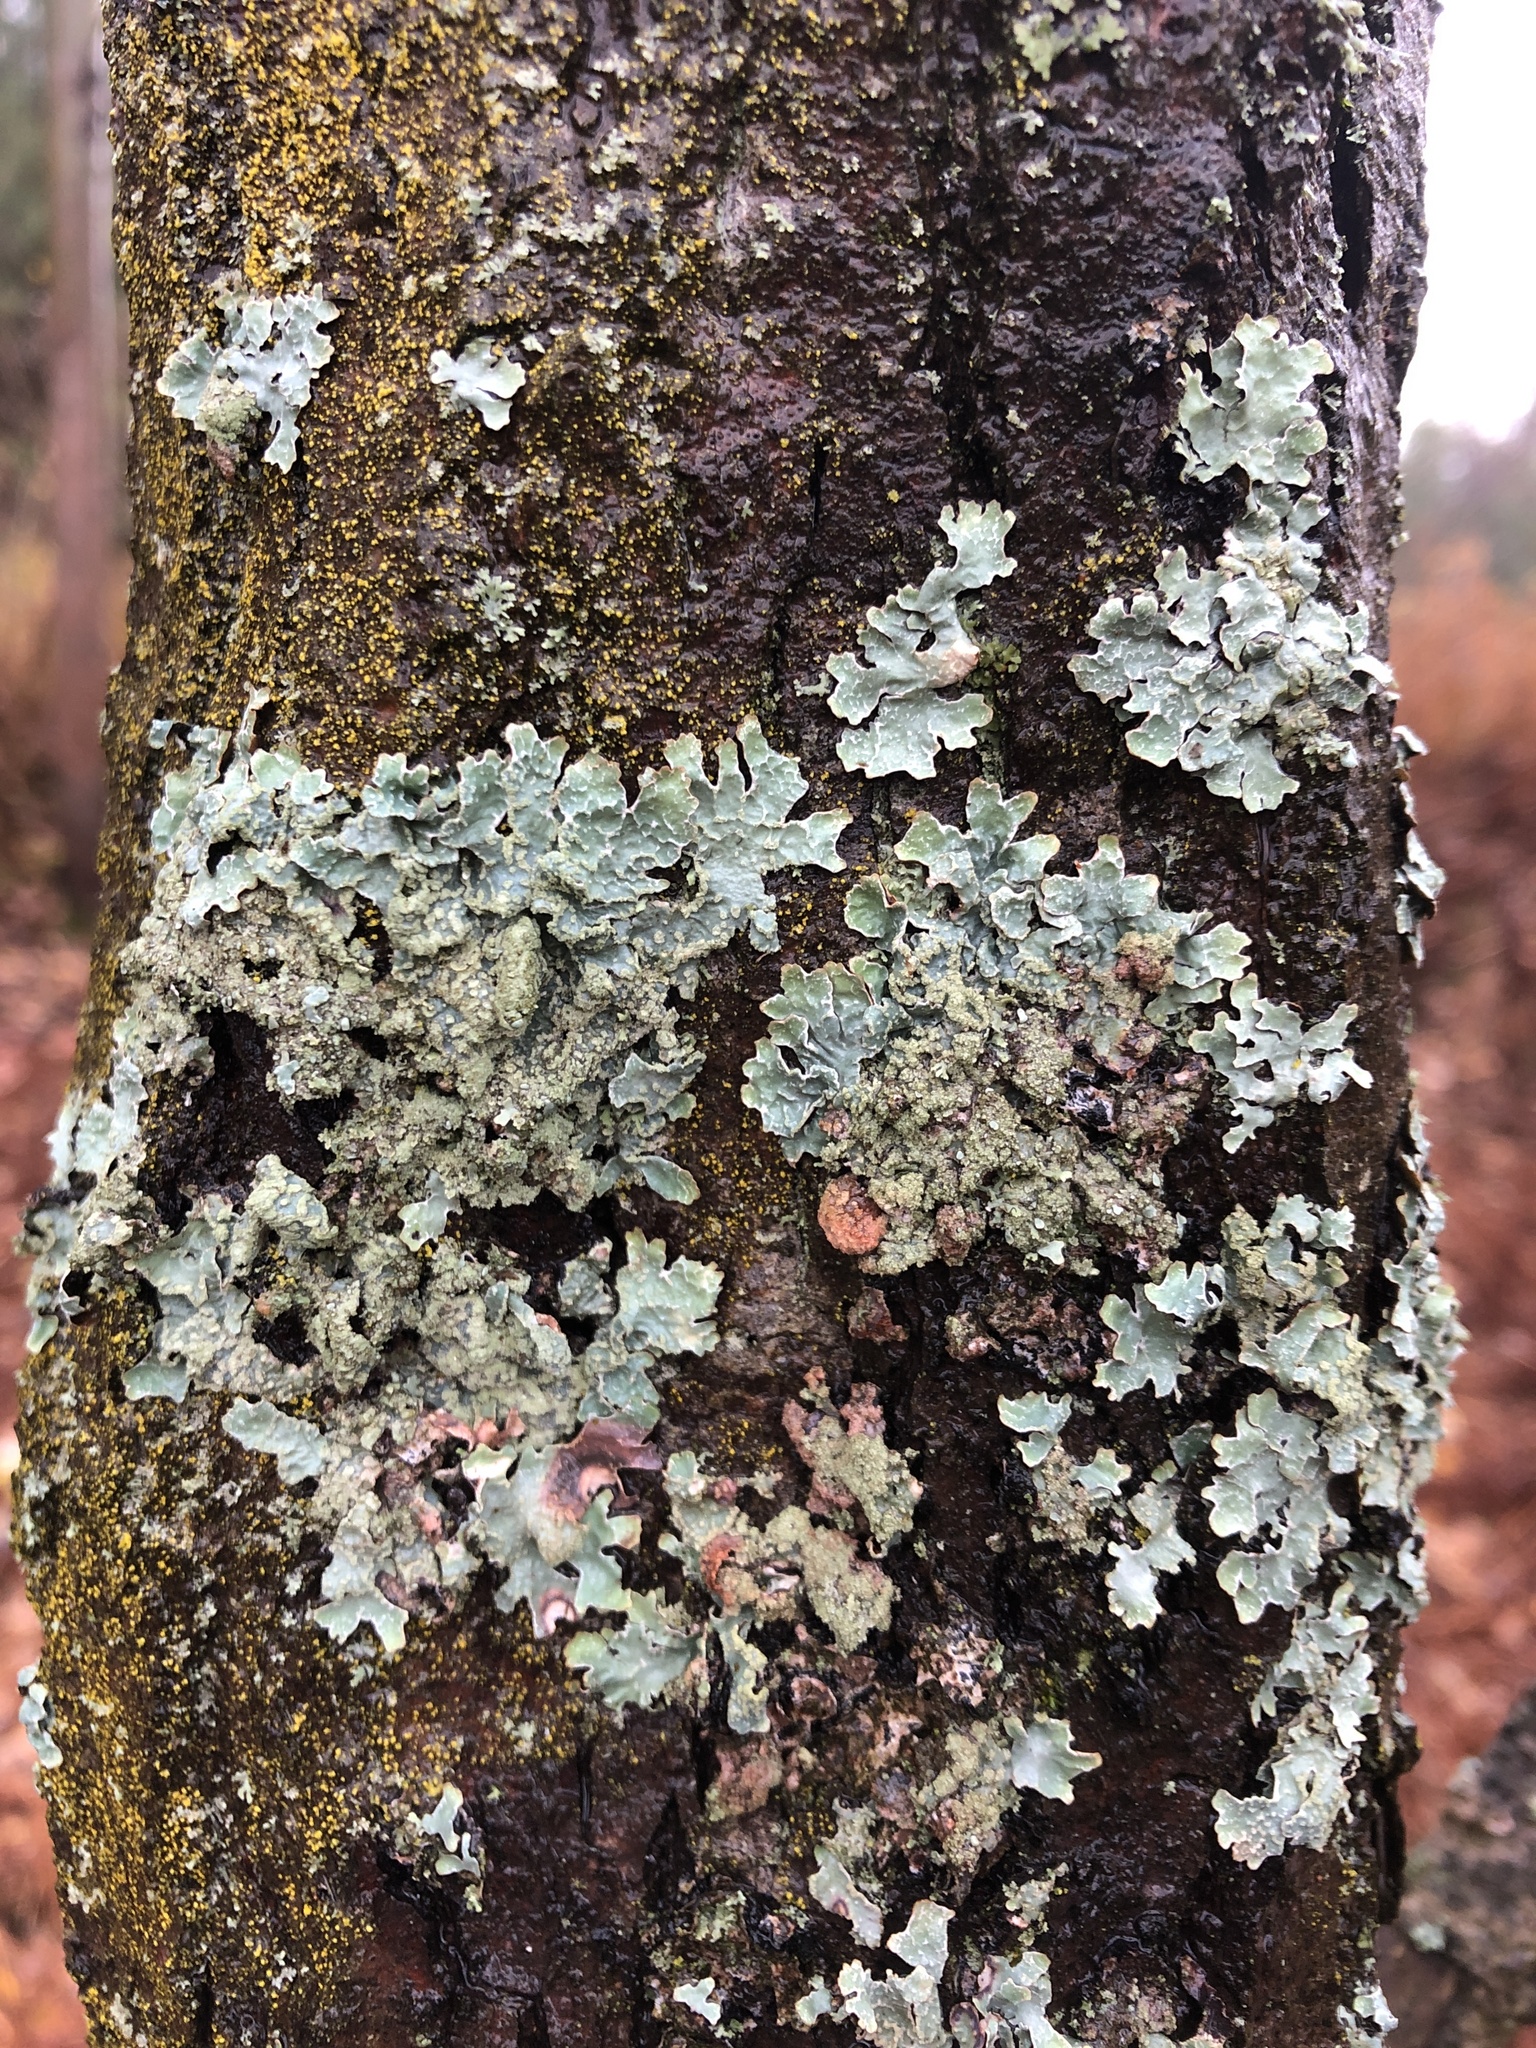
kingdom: Fungi
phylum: Ascomycota
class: Lecanoromycetes
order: Lecanorales
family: Parmeliaceae
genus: Parmelia
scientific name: Parmelia sulcata
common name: Netted shield lichen
